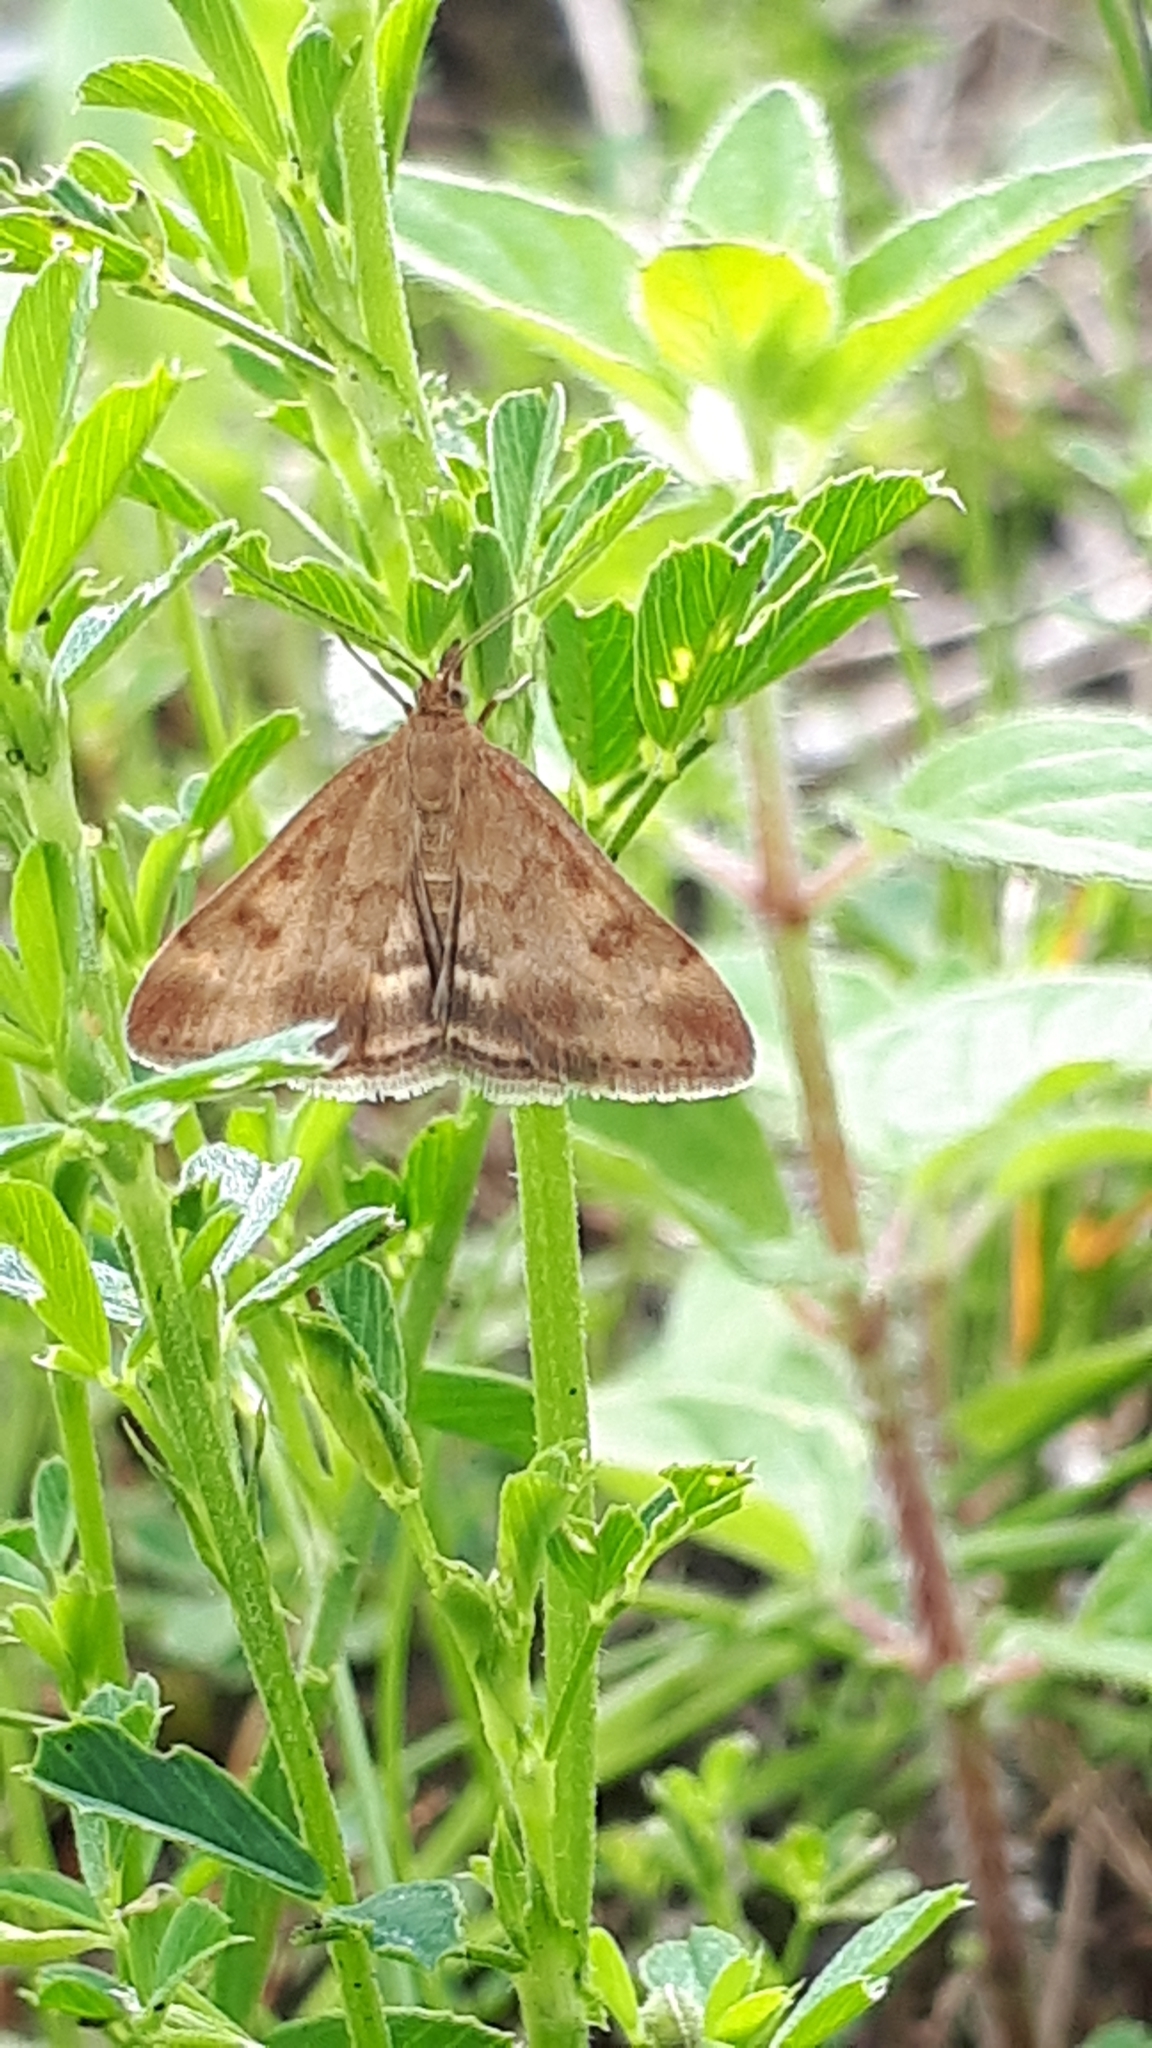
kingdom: Animalia
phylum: Arthropoda
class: Insecta
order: Lepidoptera
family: Crambidae
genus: Pyrausta
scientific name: Pyrausta despicata
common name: Straw-barred pearl
